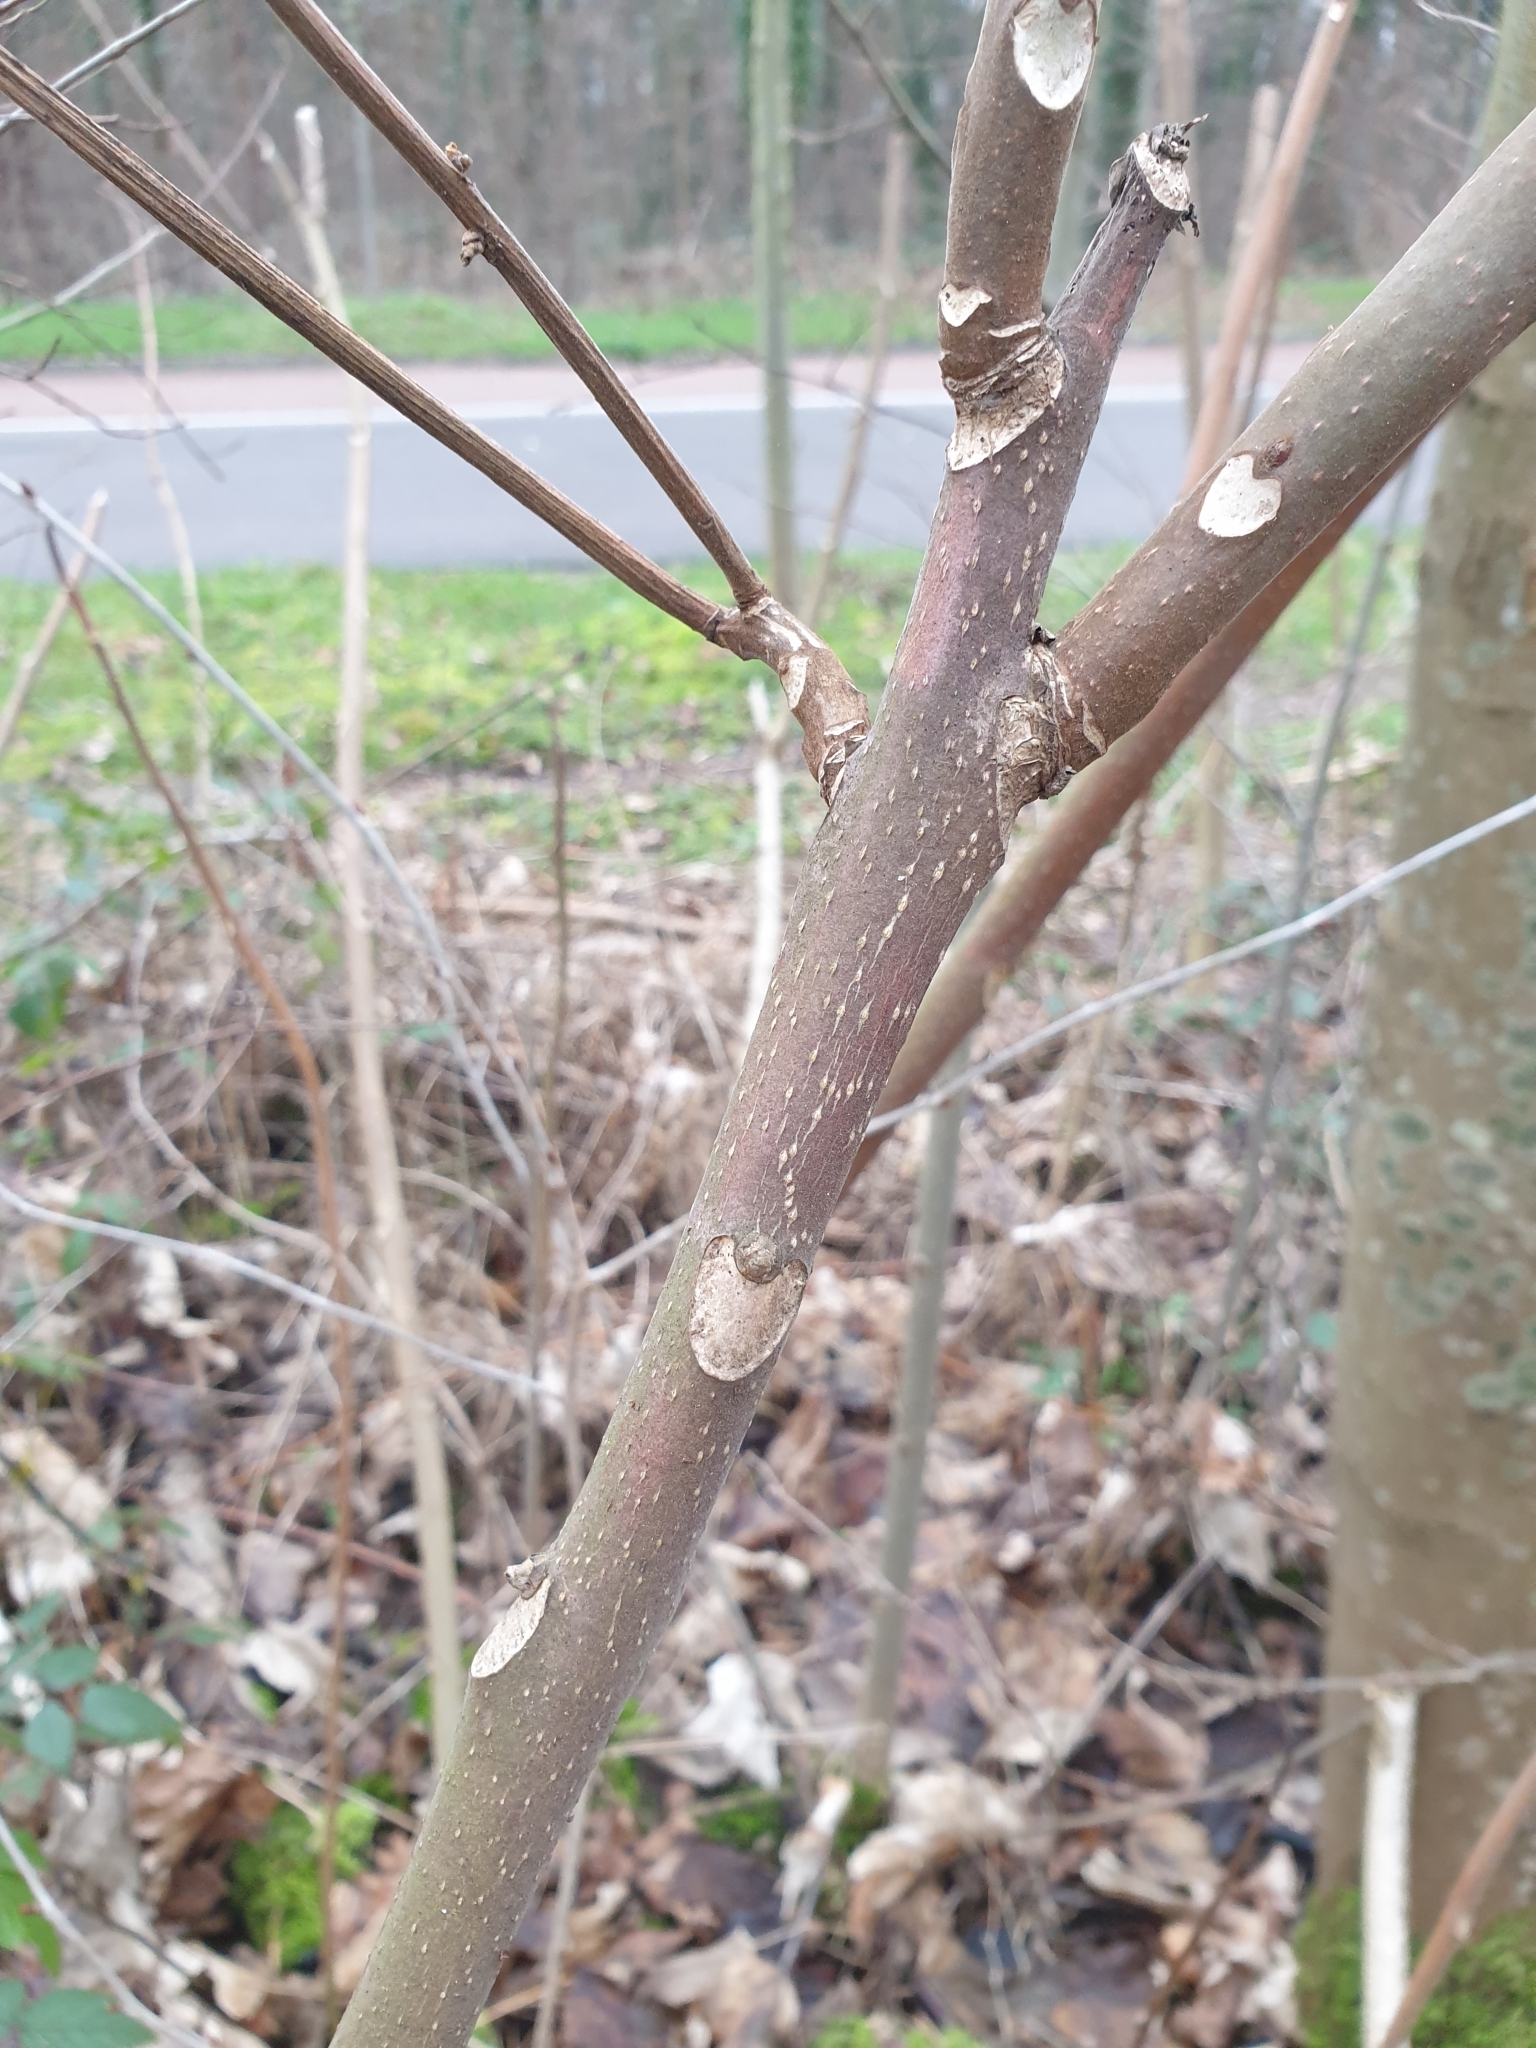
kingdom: Plantae
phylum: Tracheophyta
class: Magnoliopsida
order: Sapindales
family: Simaroubaceae
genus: Ailanthus
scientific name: Ailanthus altissima
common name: Tree-of-heaven
